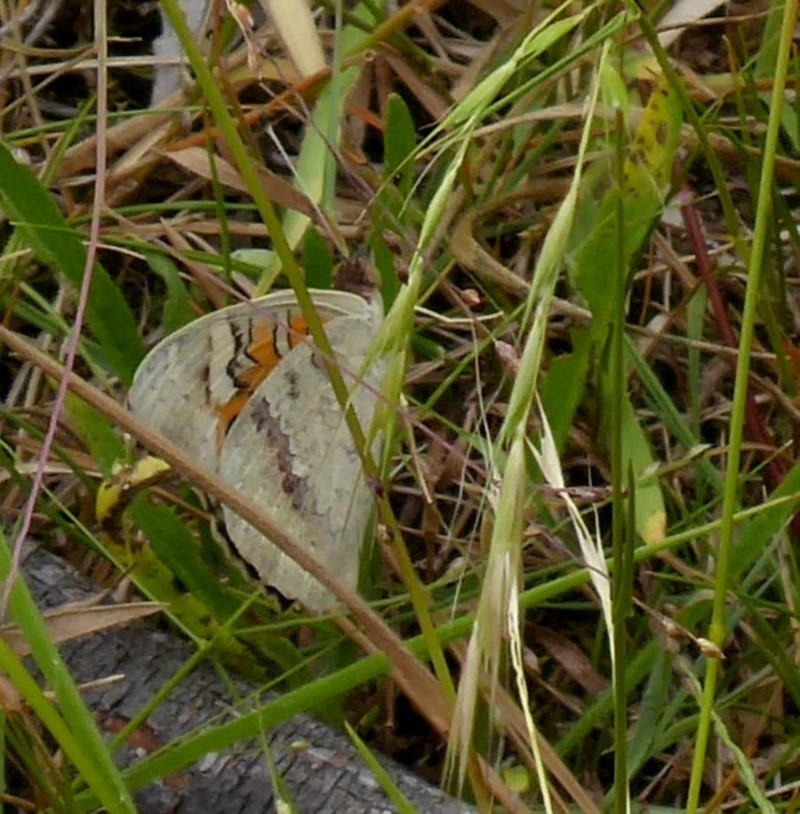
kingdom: Animalia
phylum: Arthropoda
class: Insecta
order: Lepidoptera
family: Nymphalidae
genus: Junonia
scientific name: Junonia villida
